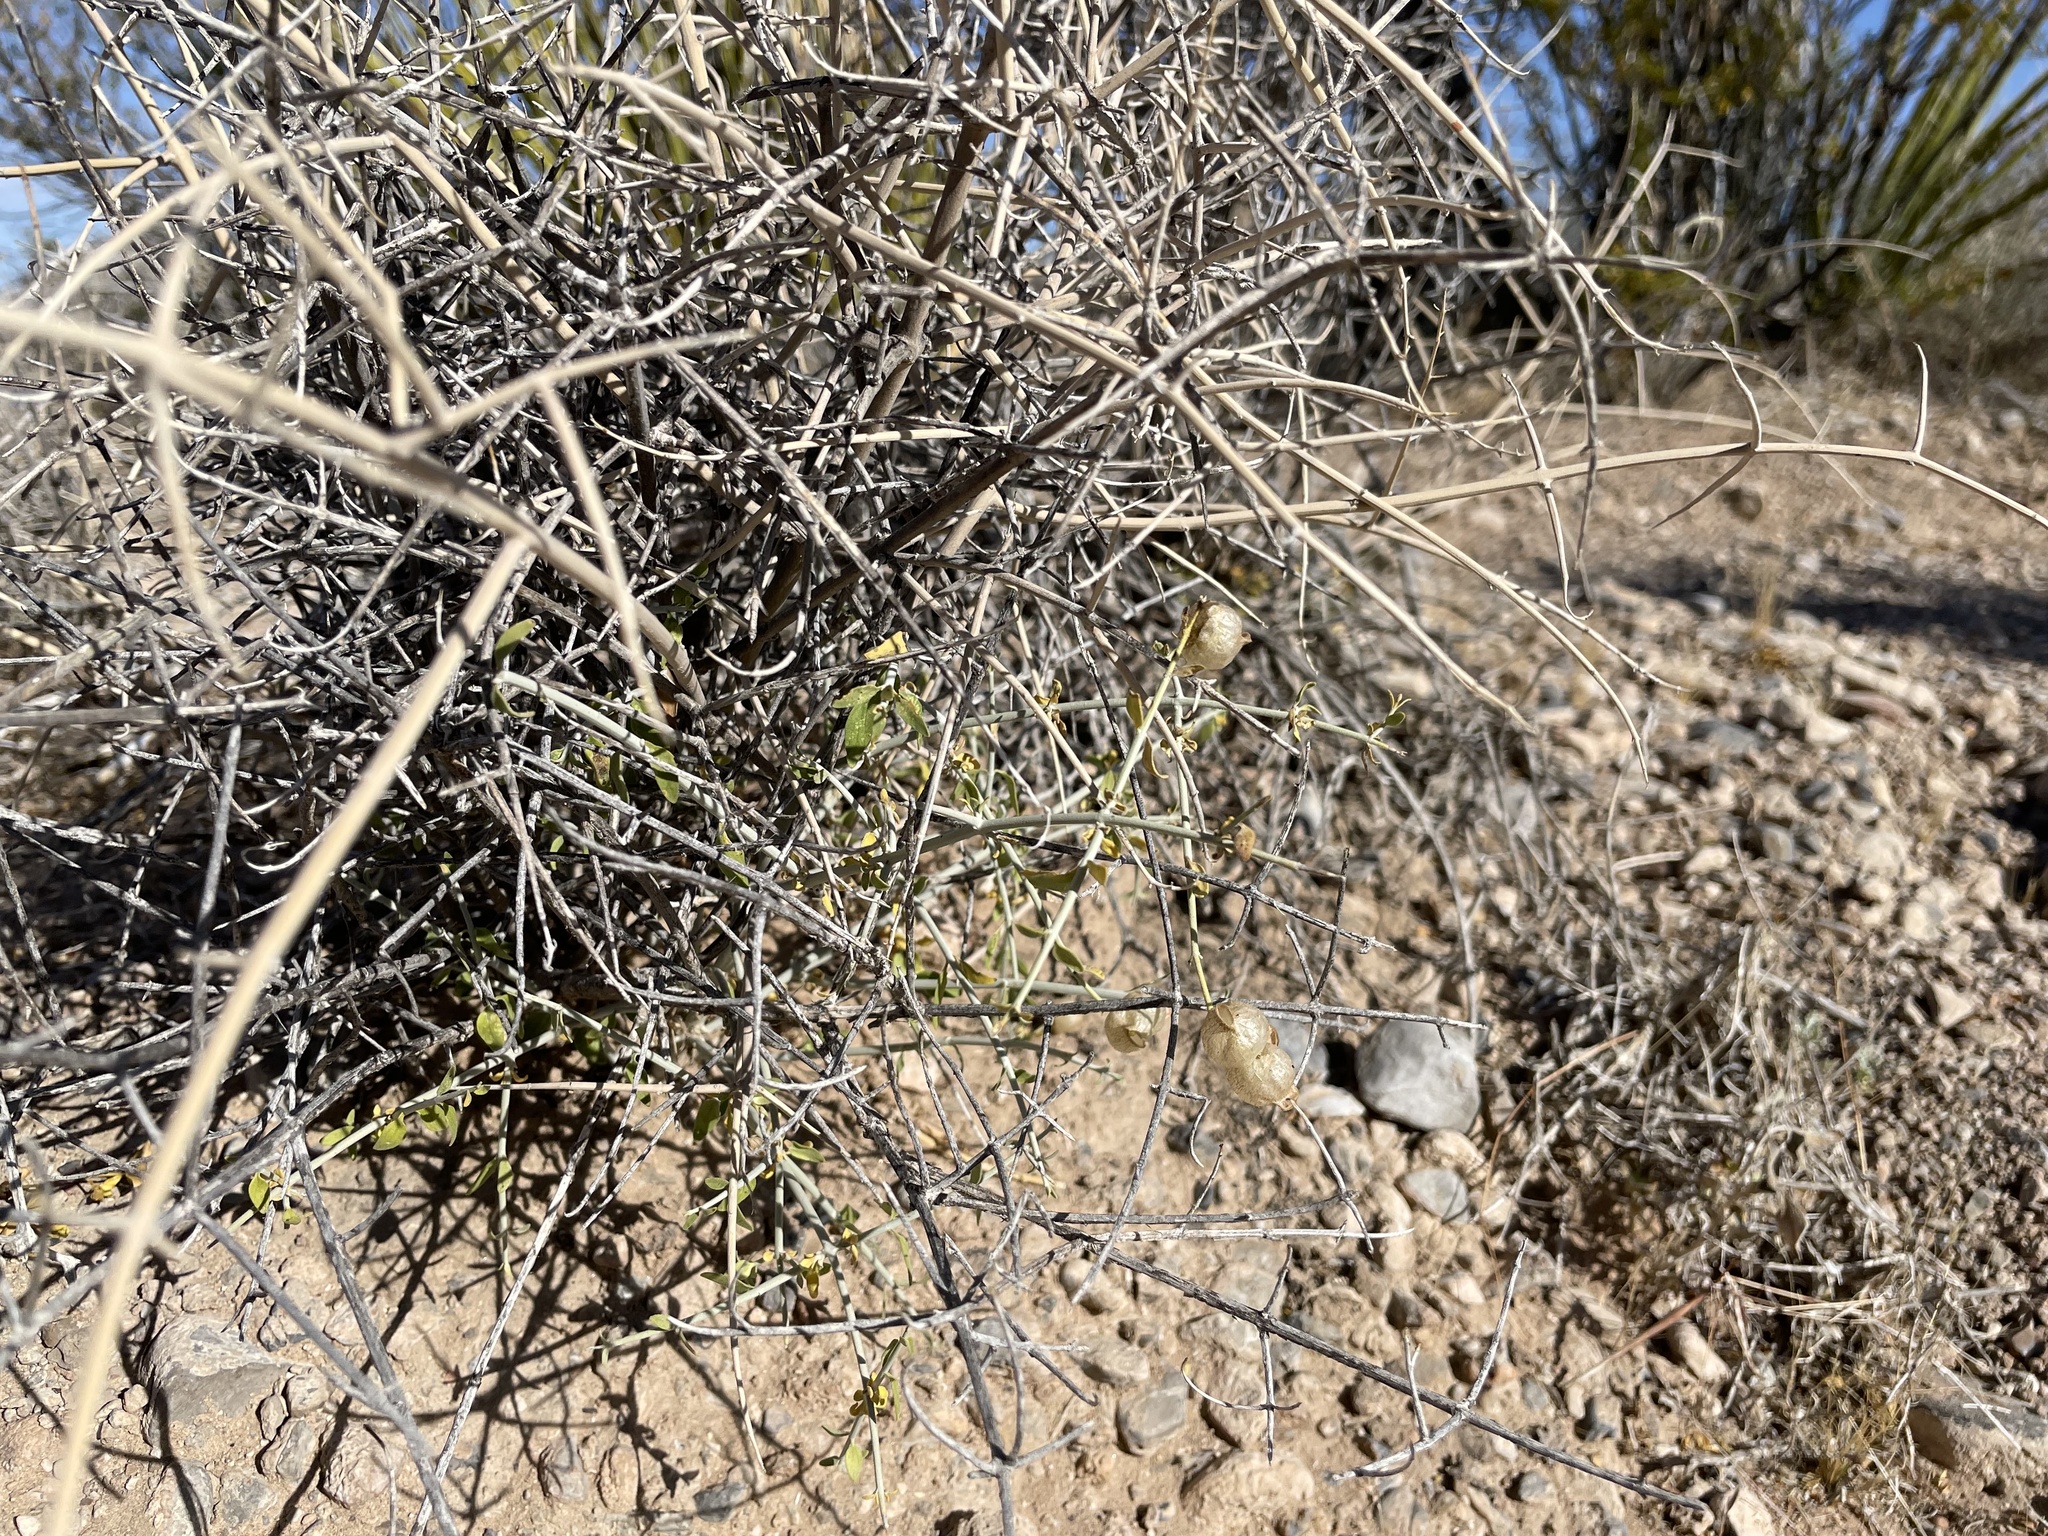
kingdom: Plantae
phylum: Tracheophyta
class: Magnoliopsida
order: Lamiales
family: Lamiaceae
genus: Scutellaria
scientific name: Scutellaria mexicana
